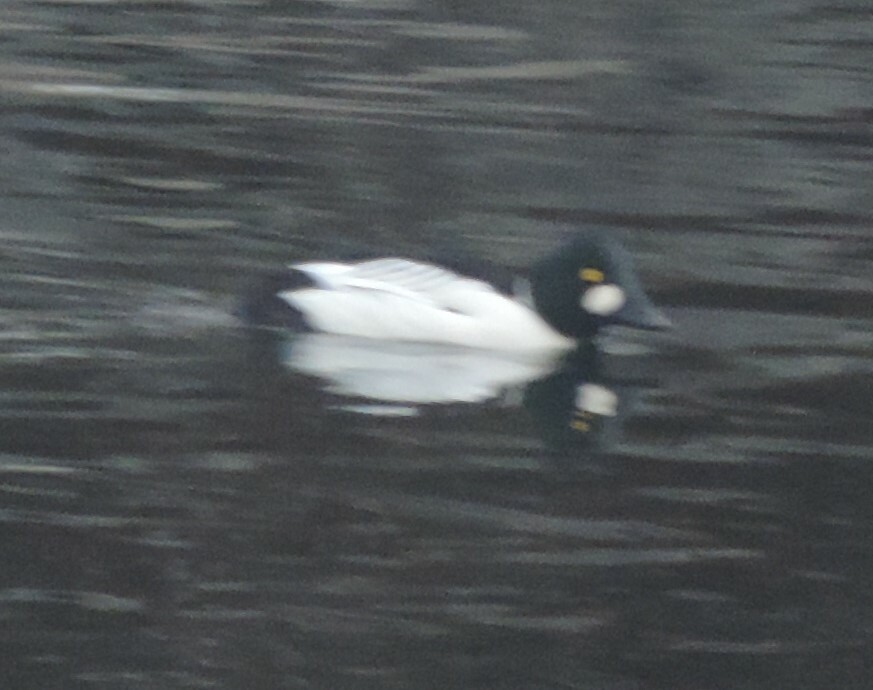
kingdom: Animalia
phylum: Chordata
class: Aves
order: Anseriformes
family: Anatidae
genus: Bucephala
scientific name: Bucephala clangula
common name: Common goldeneye
